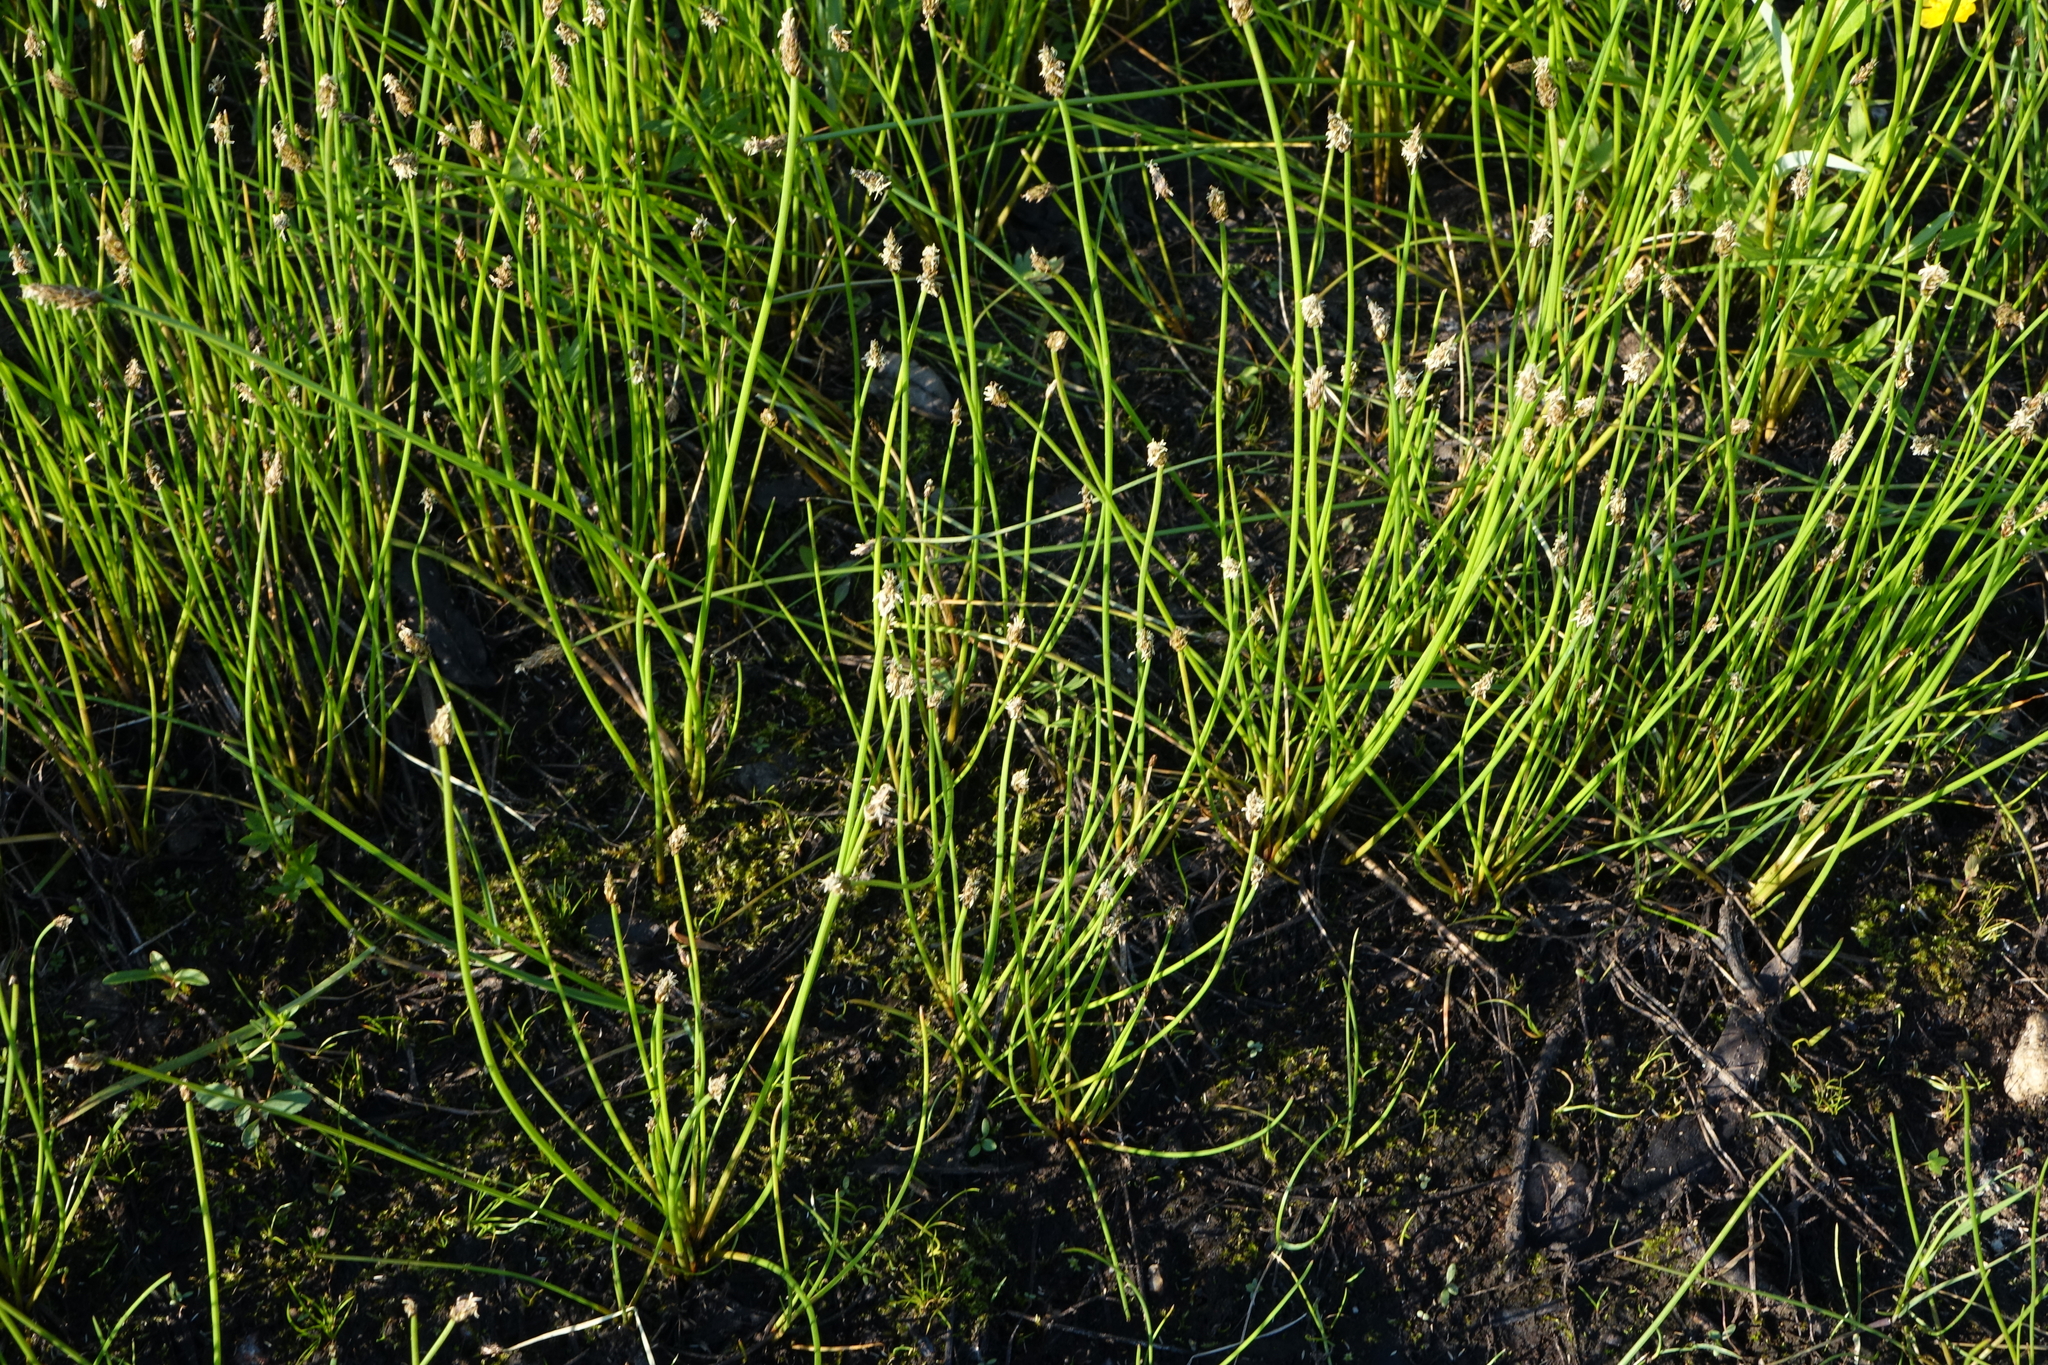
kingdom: Plantae
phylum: Tracheophyta
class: Liliopsida
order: Poales
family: Cyperaceae
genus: Eleocharis
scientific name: Eleocharis palustris
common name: Common spike-rush
